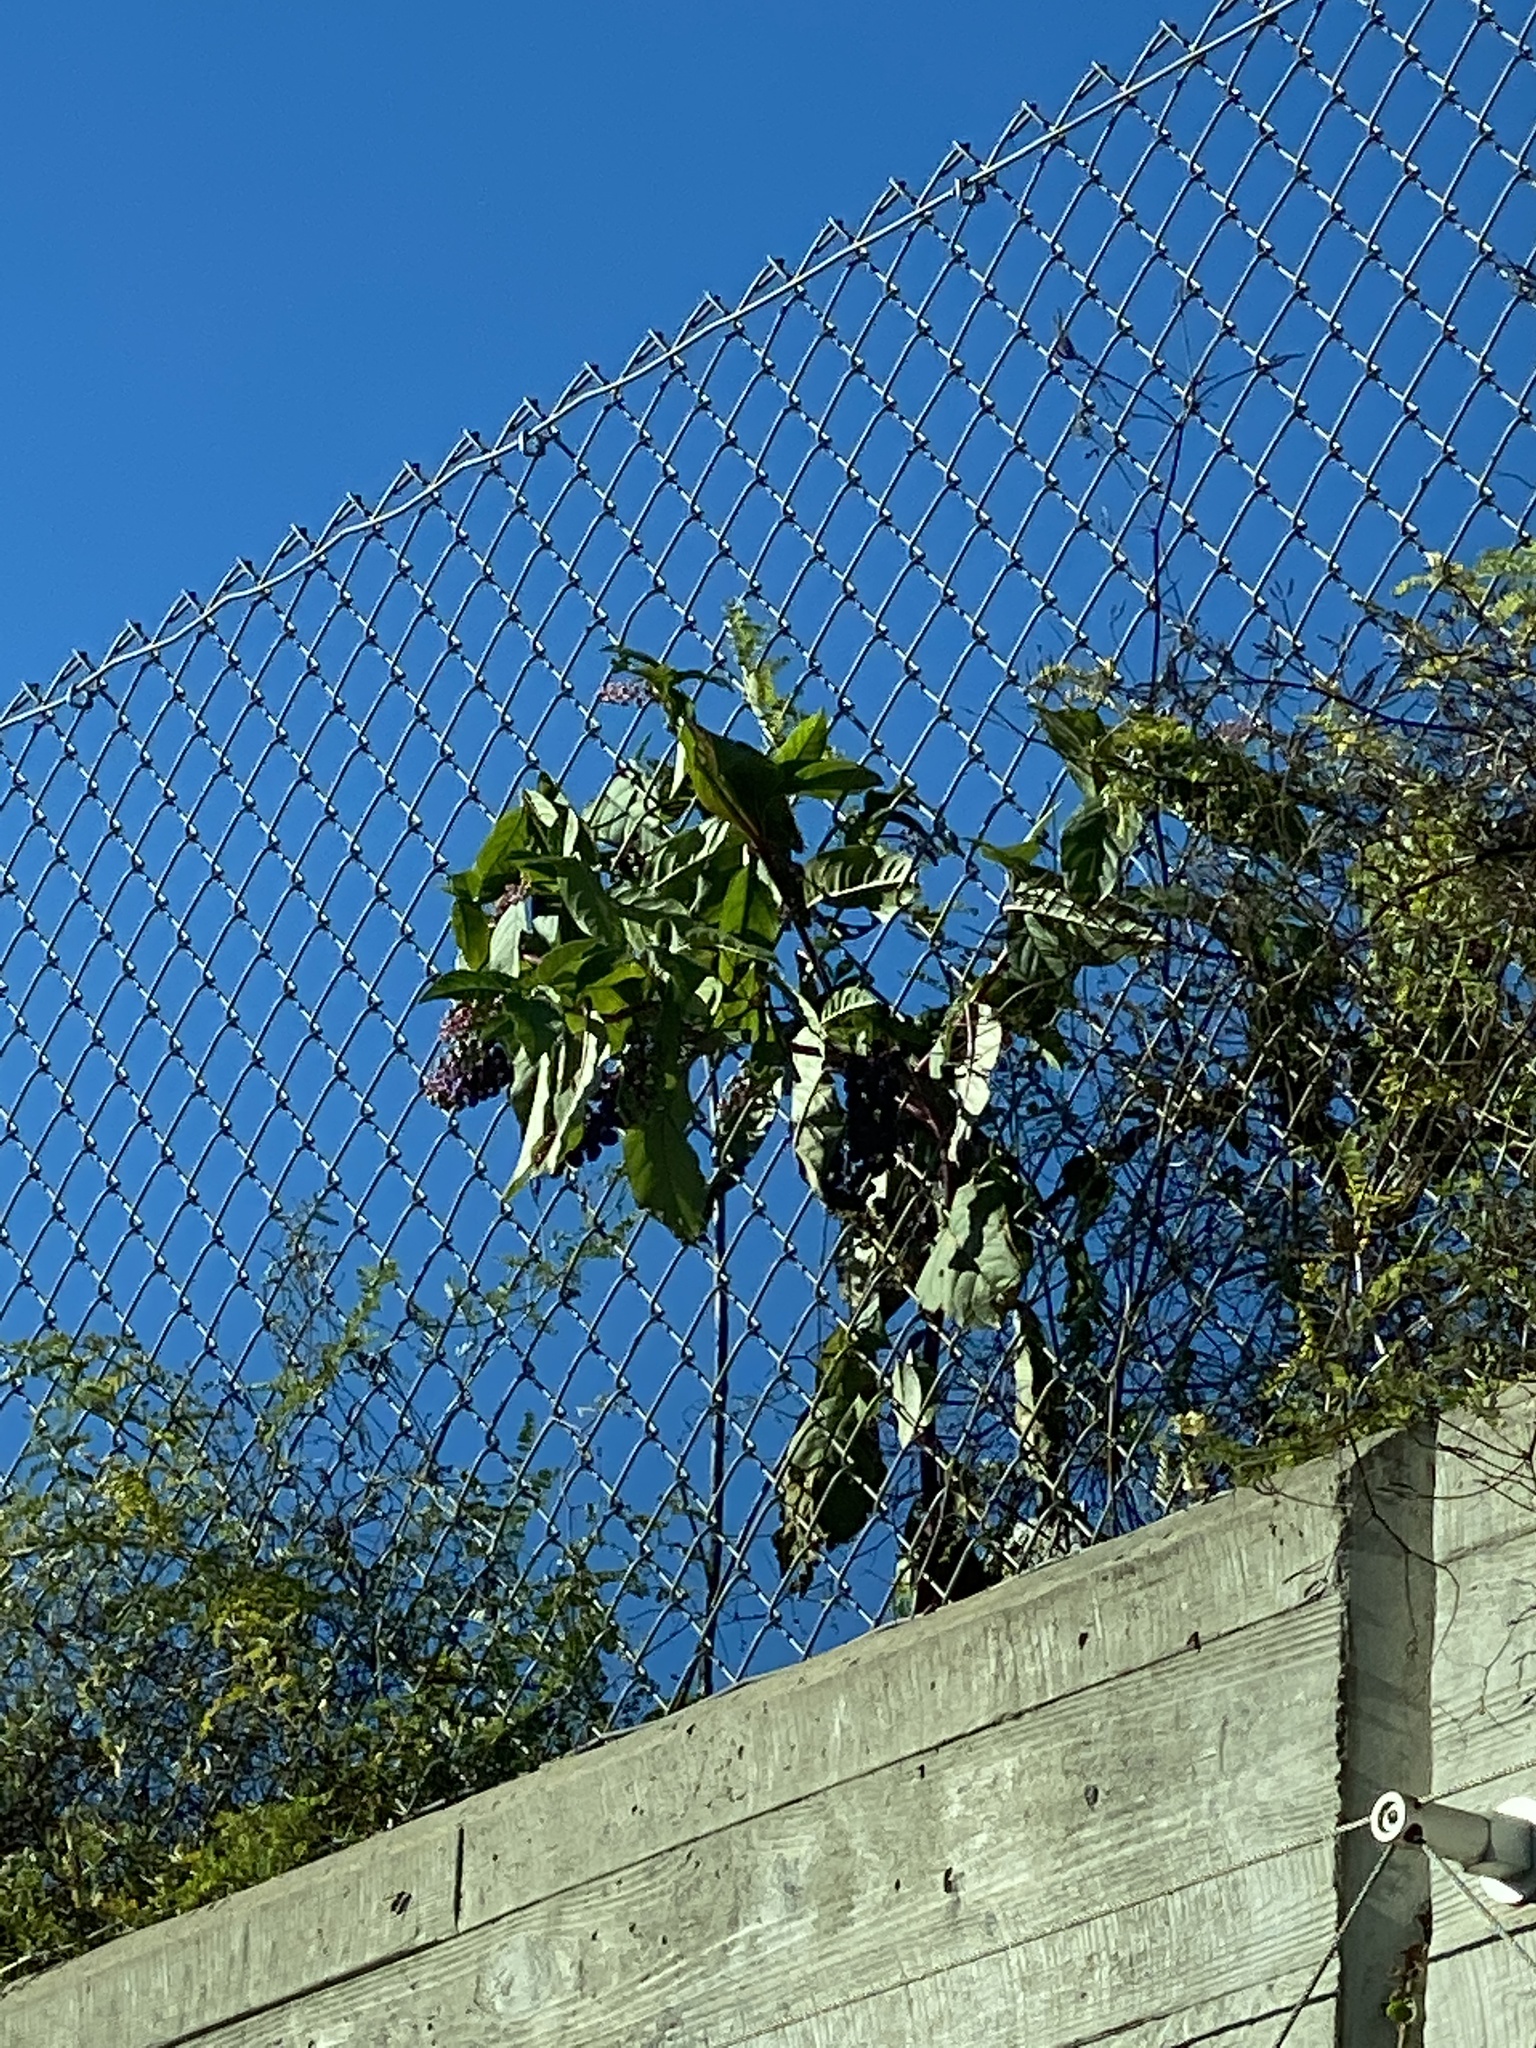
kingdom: Plantae
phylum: Tracheophyta
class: Magnoliopsida
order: Caryophyllales
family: Phytolaccaceae
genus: Phytolacca
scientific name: Phytolacca americana
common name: American pokeweed
